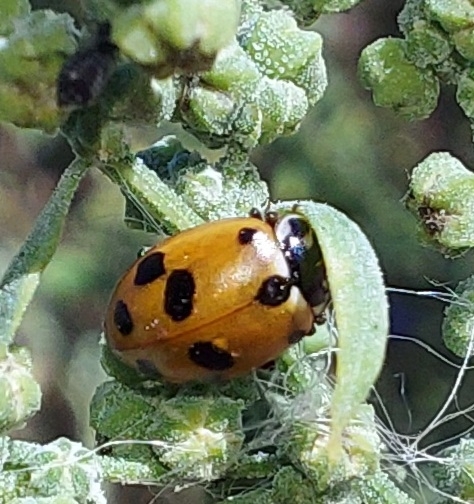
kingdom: Animalia
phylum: Arthropoda
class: Insecta
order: Coleoptera
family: Coccinellidae
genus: Hippodamia
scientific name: Hippodamia variegata
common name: Ladybird beetle
